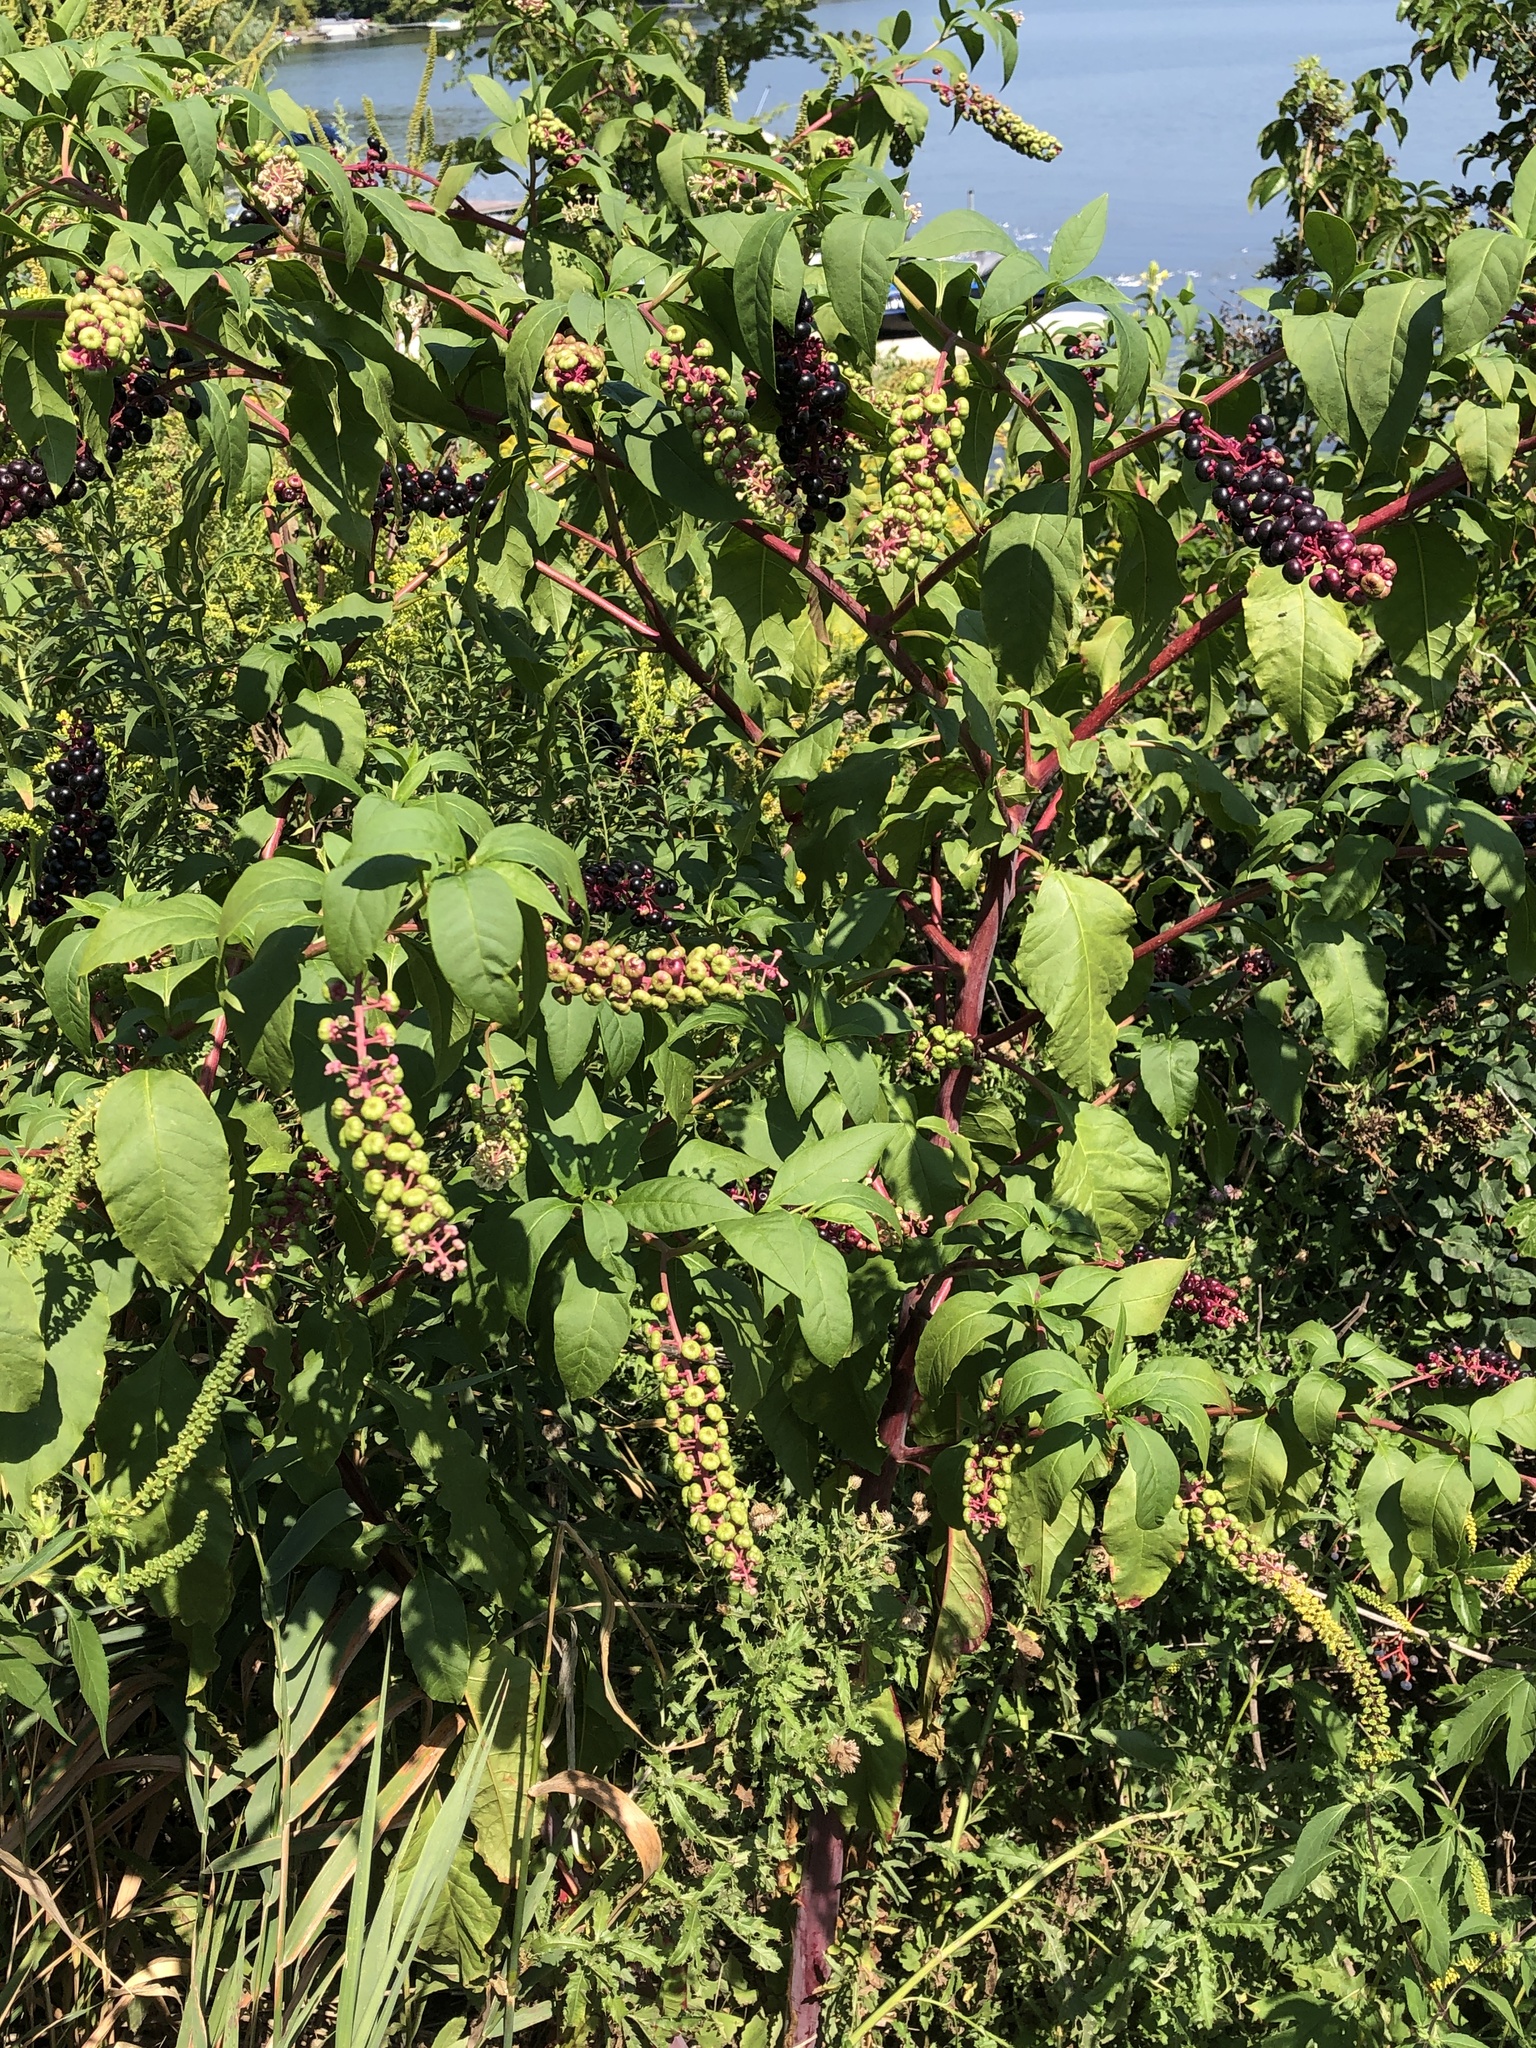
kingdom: Plantae
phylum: Tracheophyta
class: Magnoliopsida
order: Caryophyllales
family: Phytolaccaceae
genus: Phytolacca
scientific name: Phytolacca americana
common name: American pokeweed
